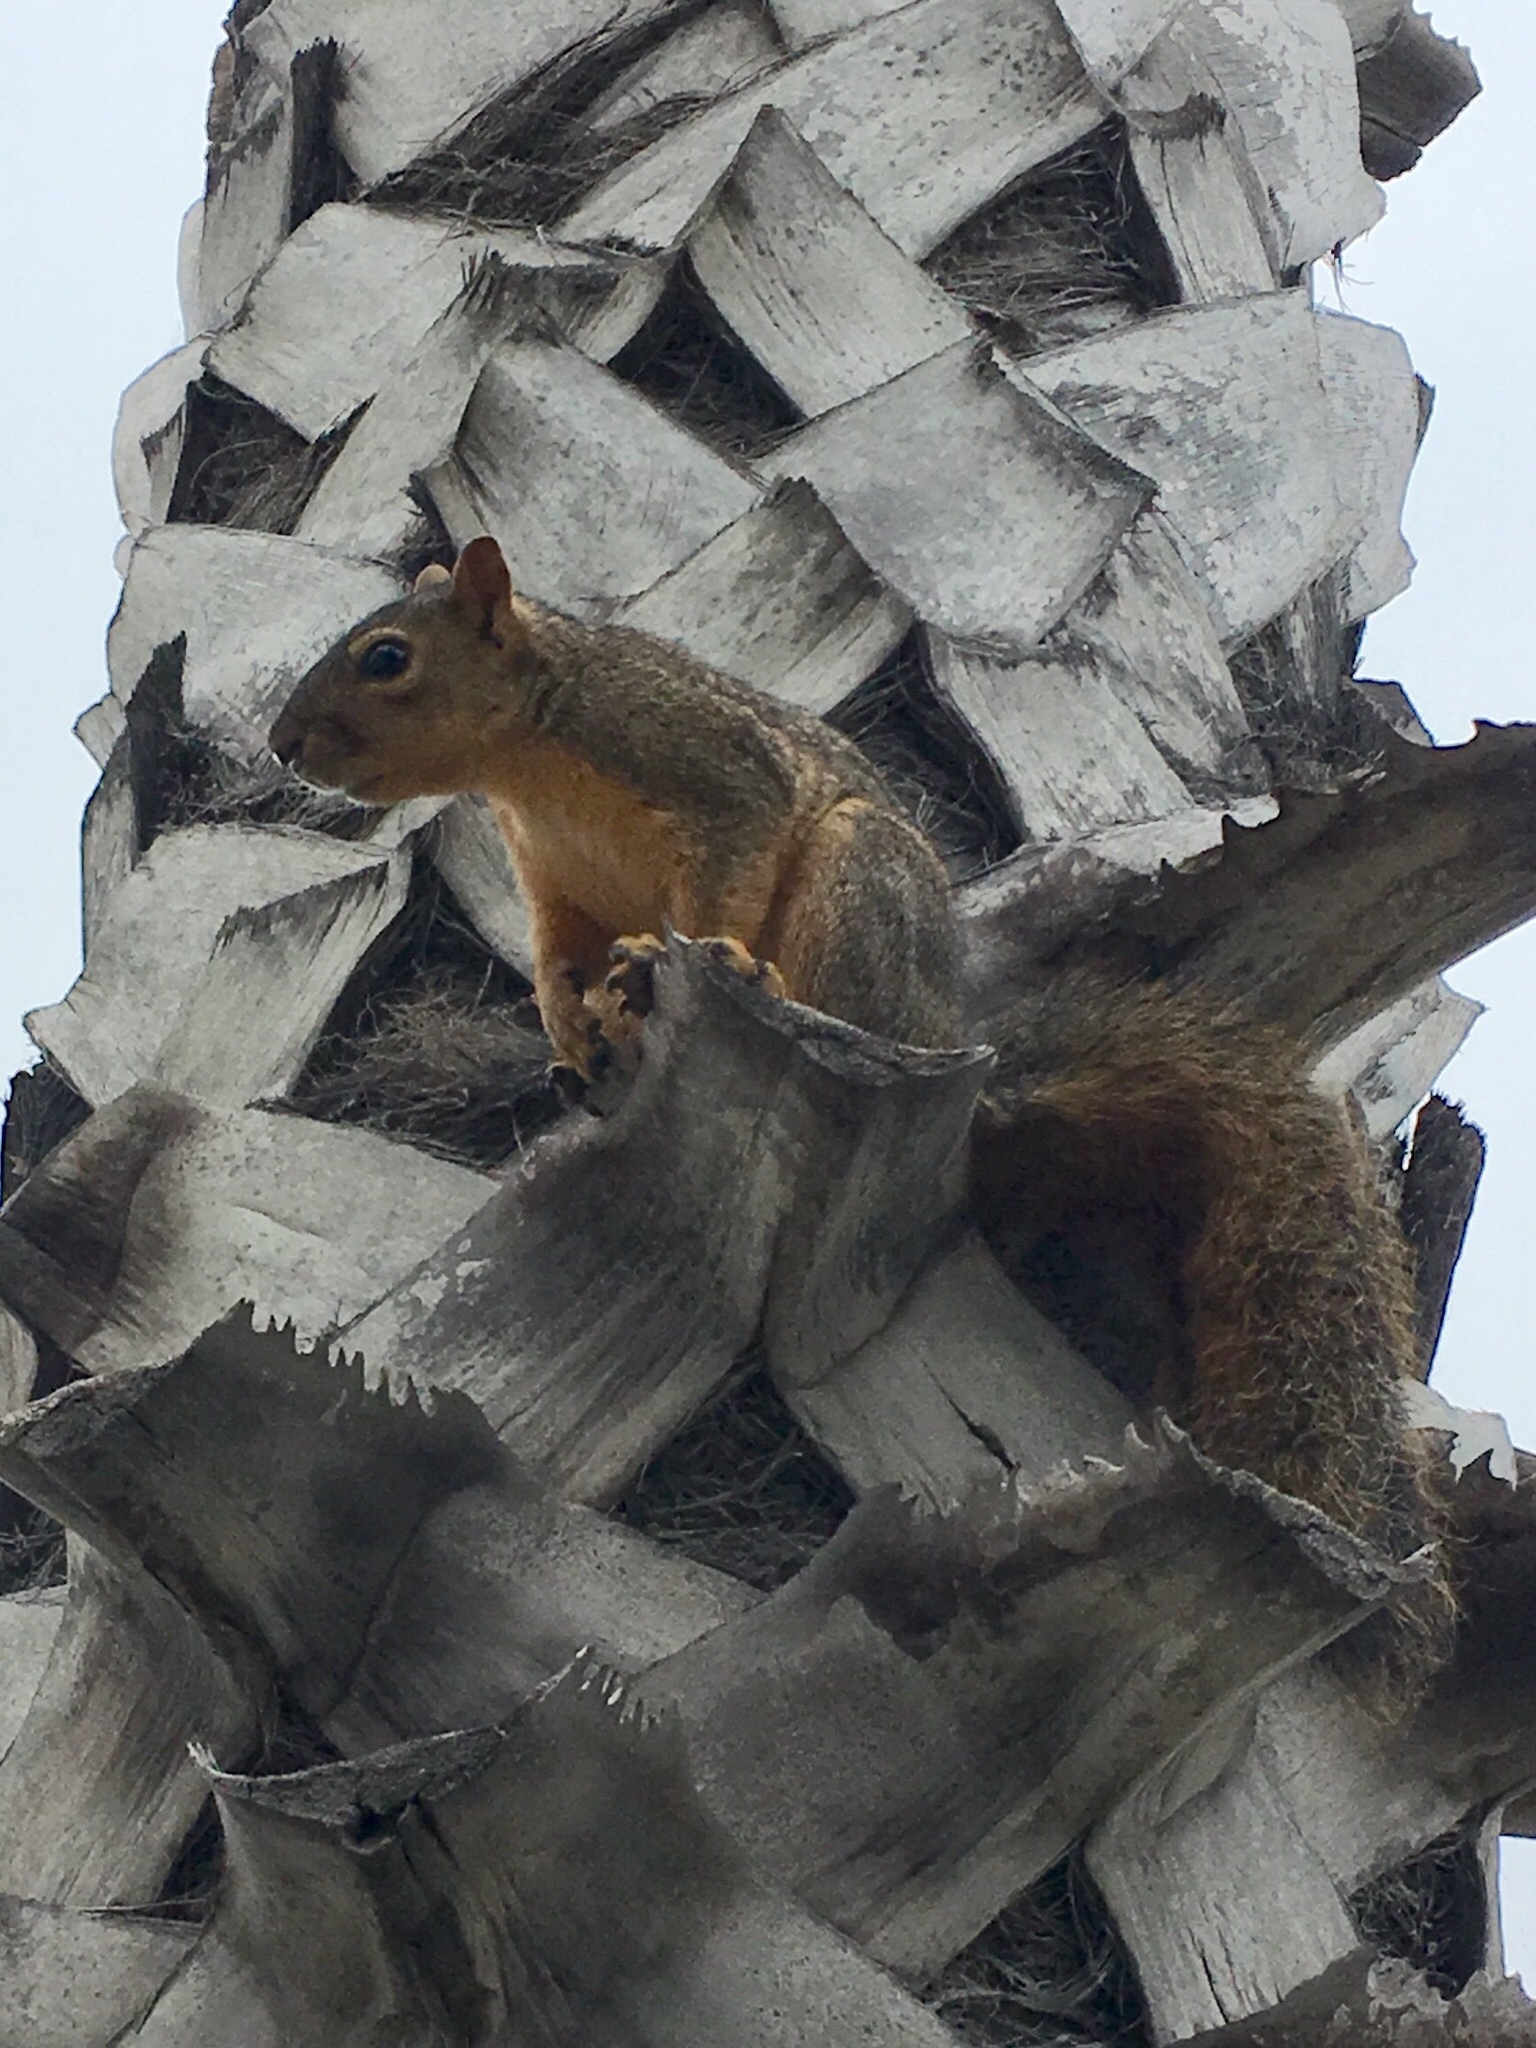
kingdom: Animalia
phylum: Chordata
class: Mammalia
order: Rodentia
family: Sciuridae
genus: Sciurus
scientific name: Sciurus niger
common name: Fox squirrel
